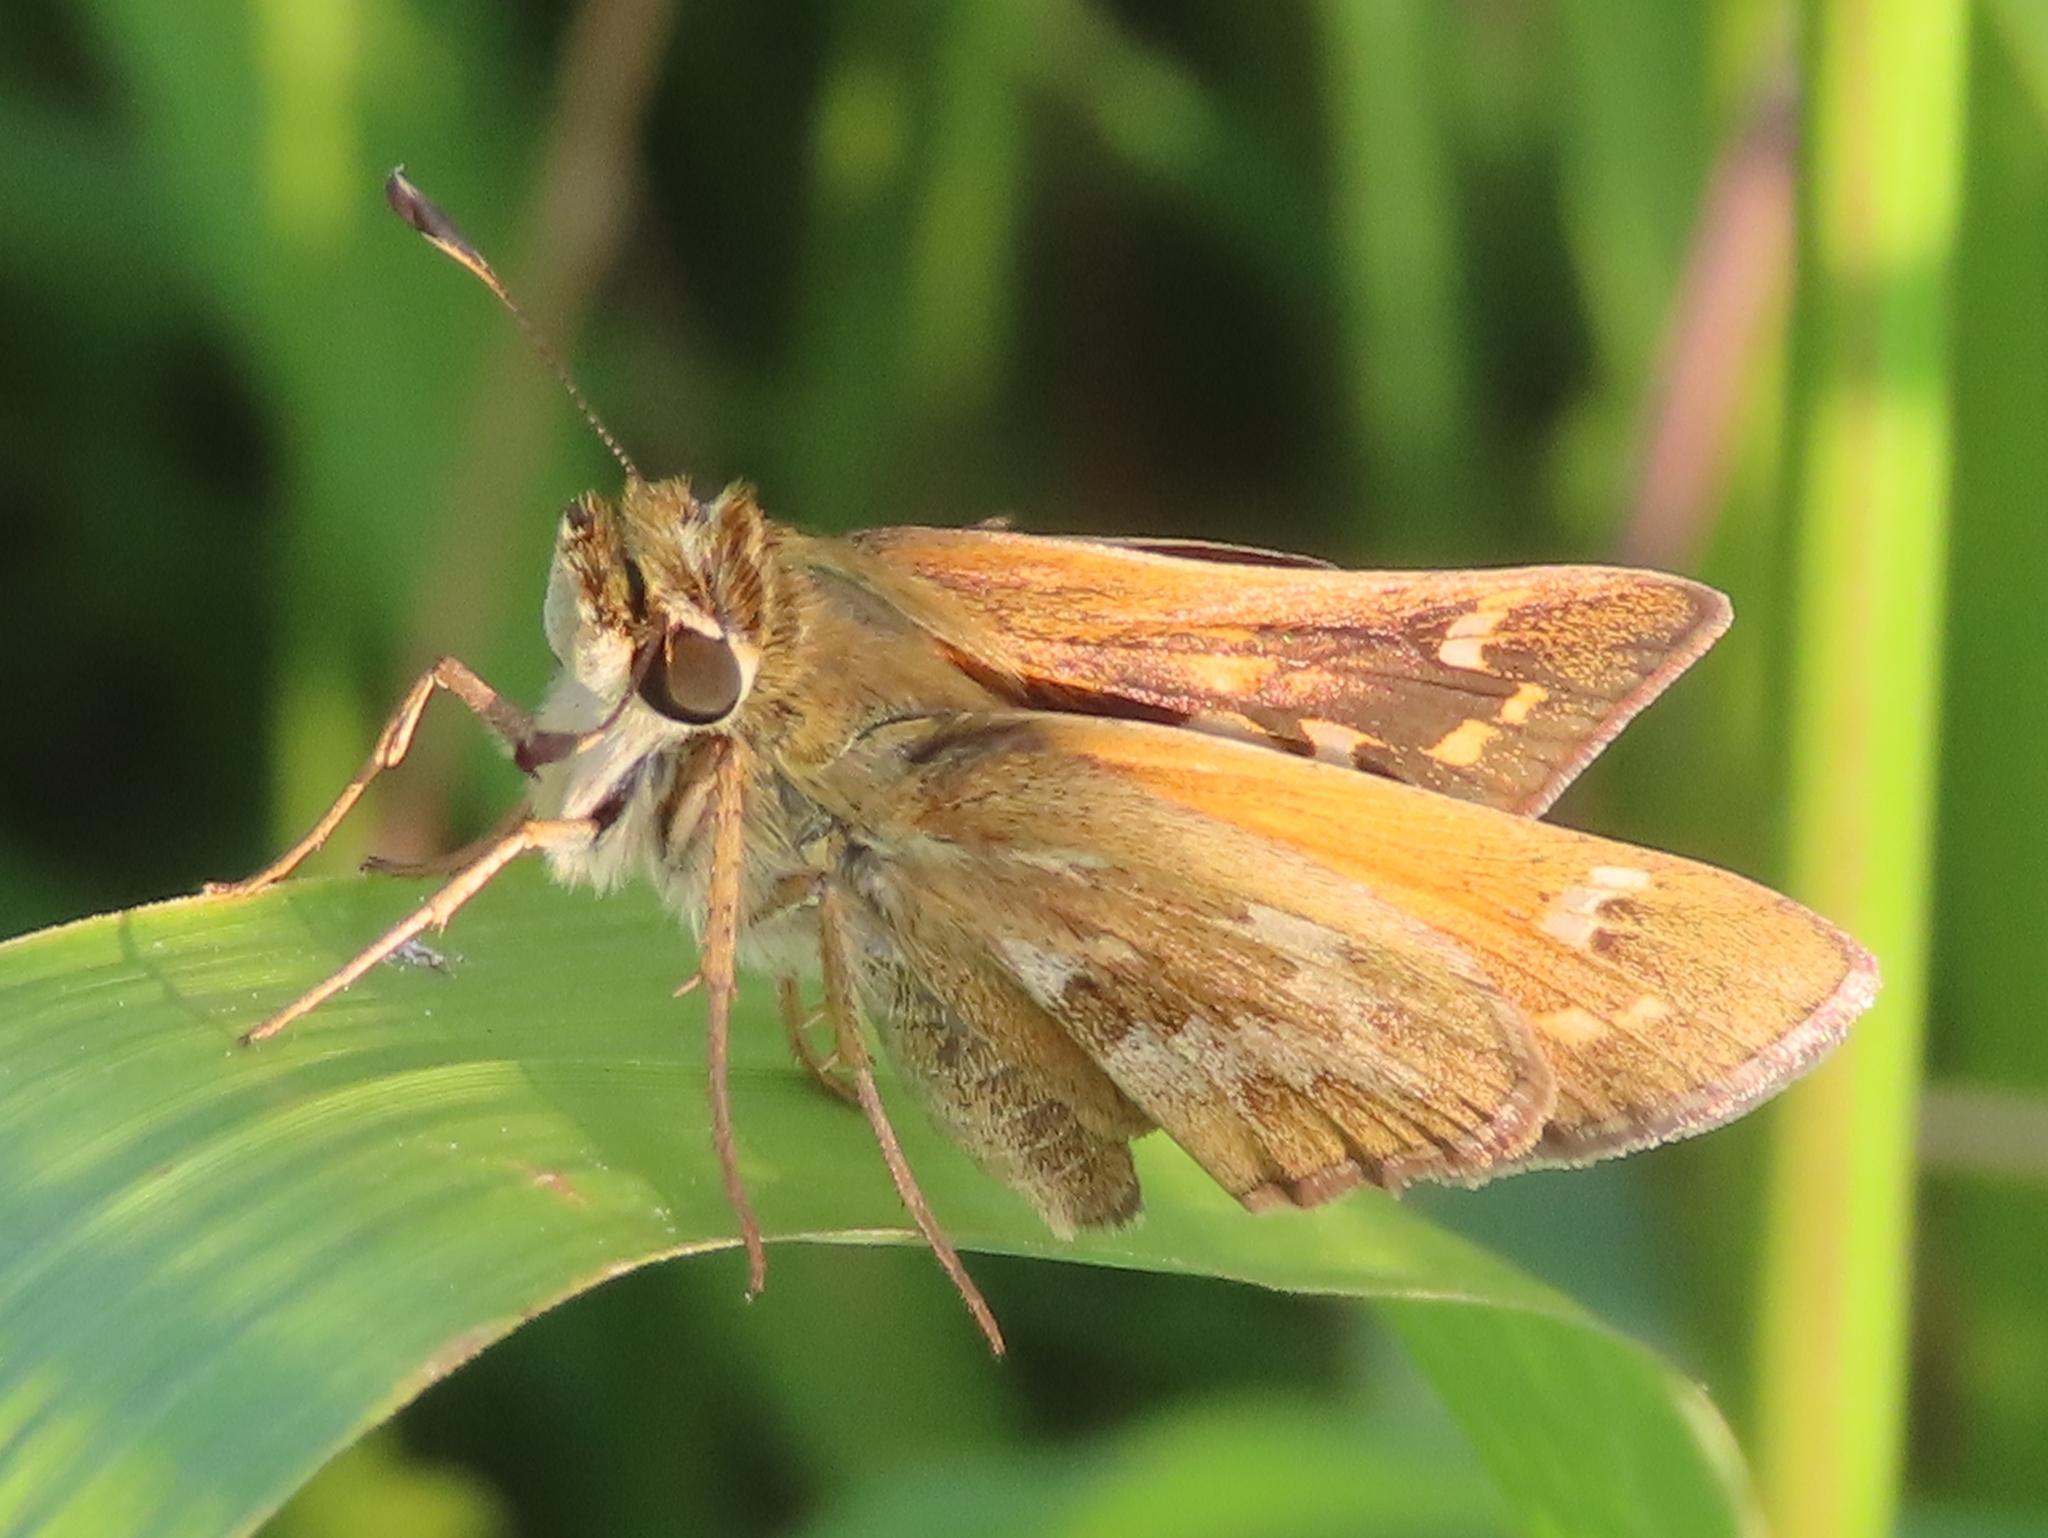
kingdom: Animalia
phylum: Arthropoda
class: Insecta
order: Lepidoptera
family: Hesperiidae
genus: Atalopedes
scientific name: Atalopedes
